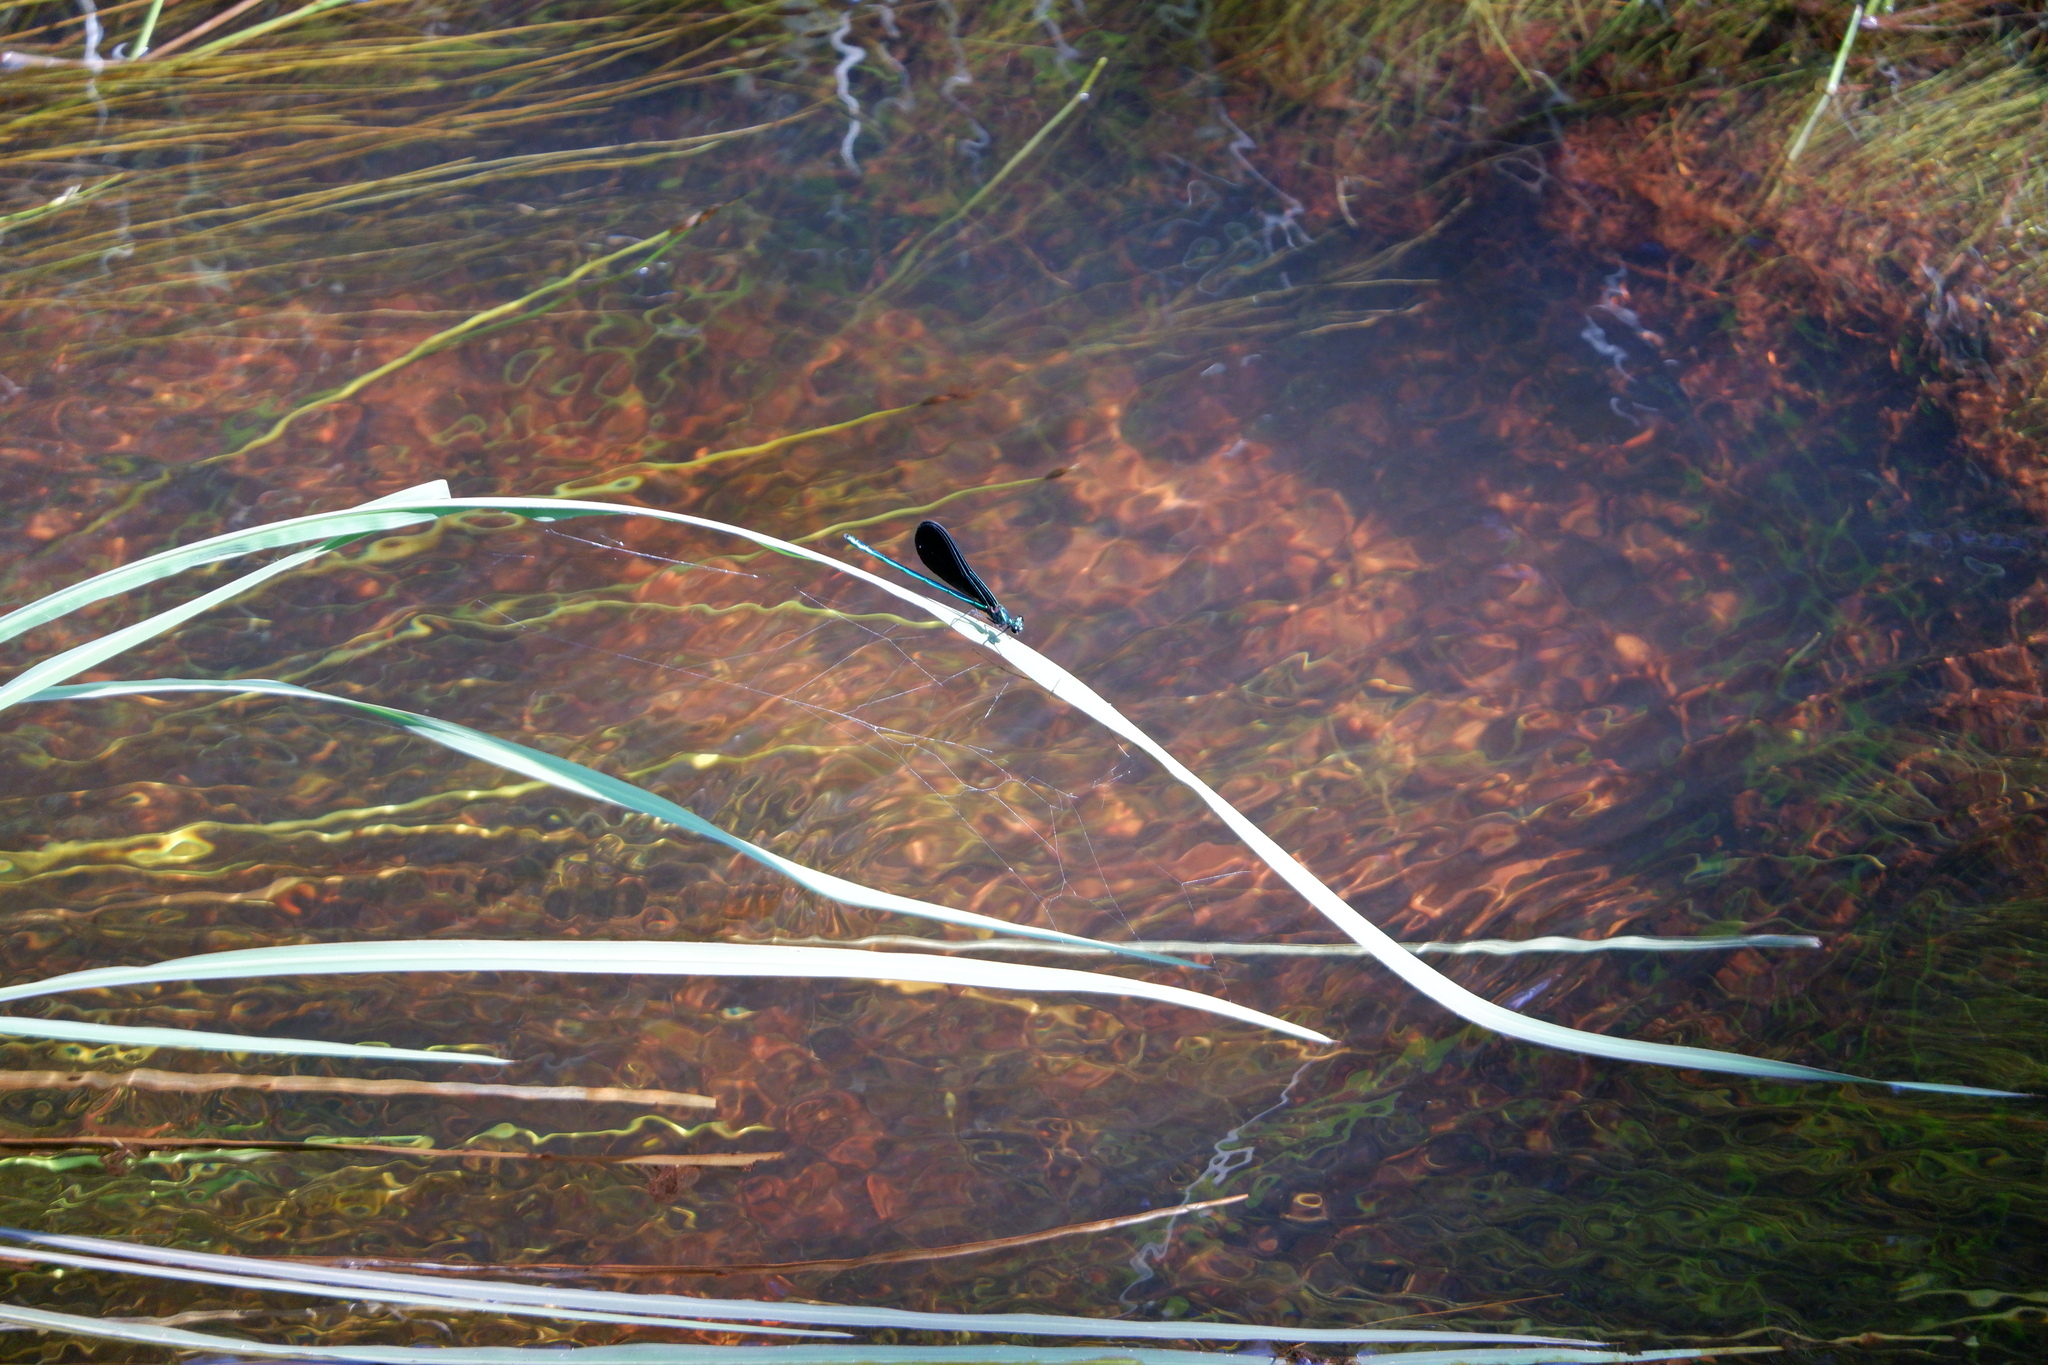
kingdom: Animalia
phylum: Arthropoda
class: Insecta
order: Odonata
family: Calopterygidae
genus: Calopteryx
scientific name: Calopteryx maculata
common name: Ebony jewelwing
